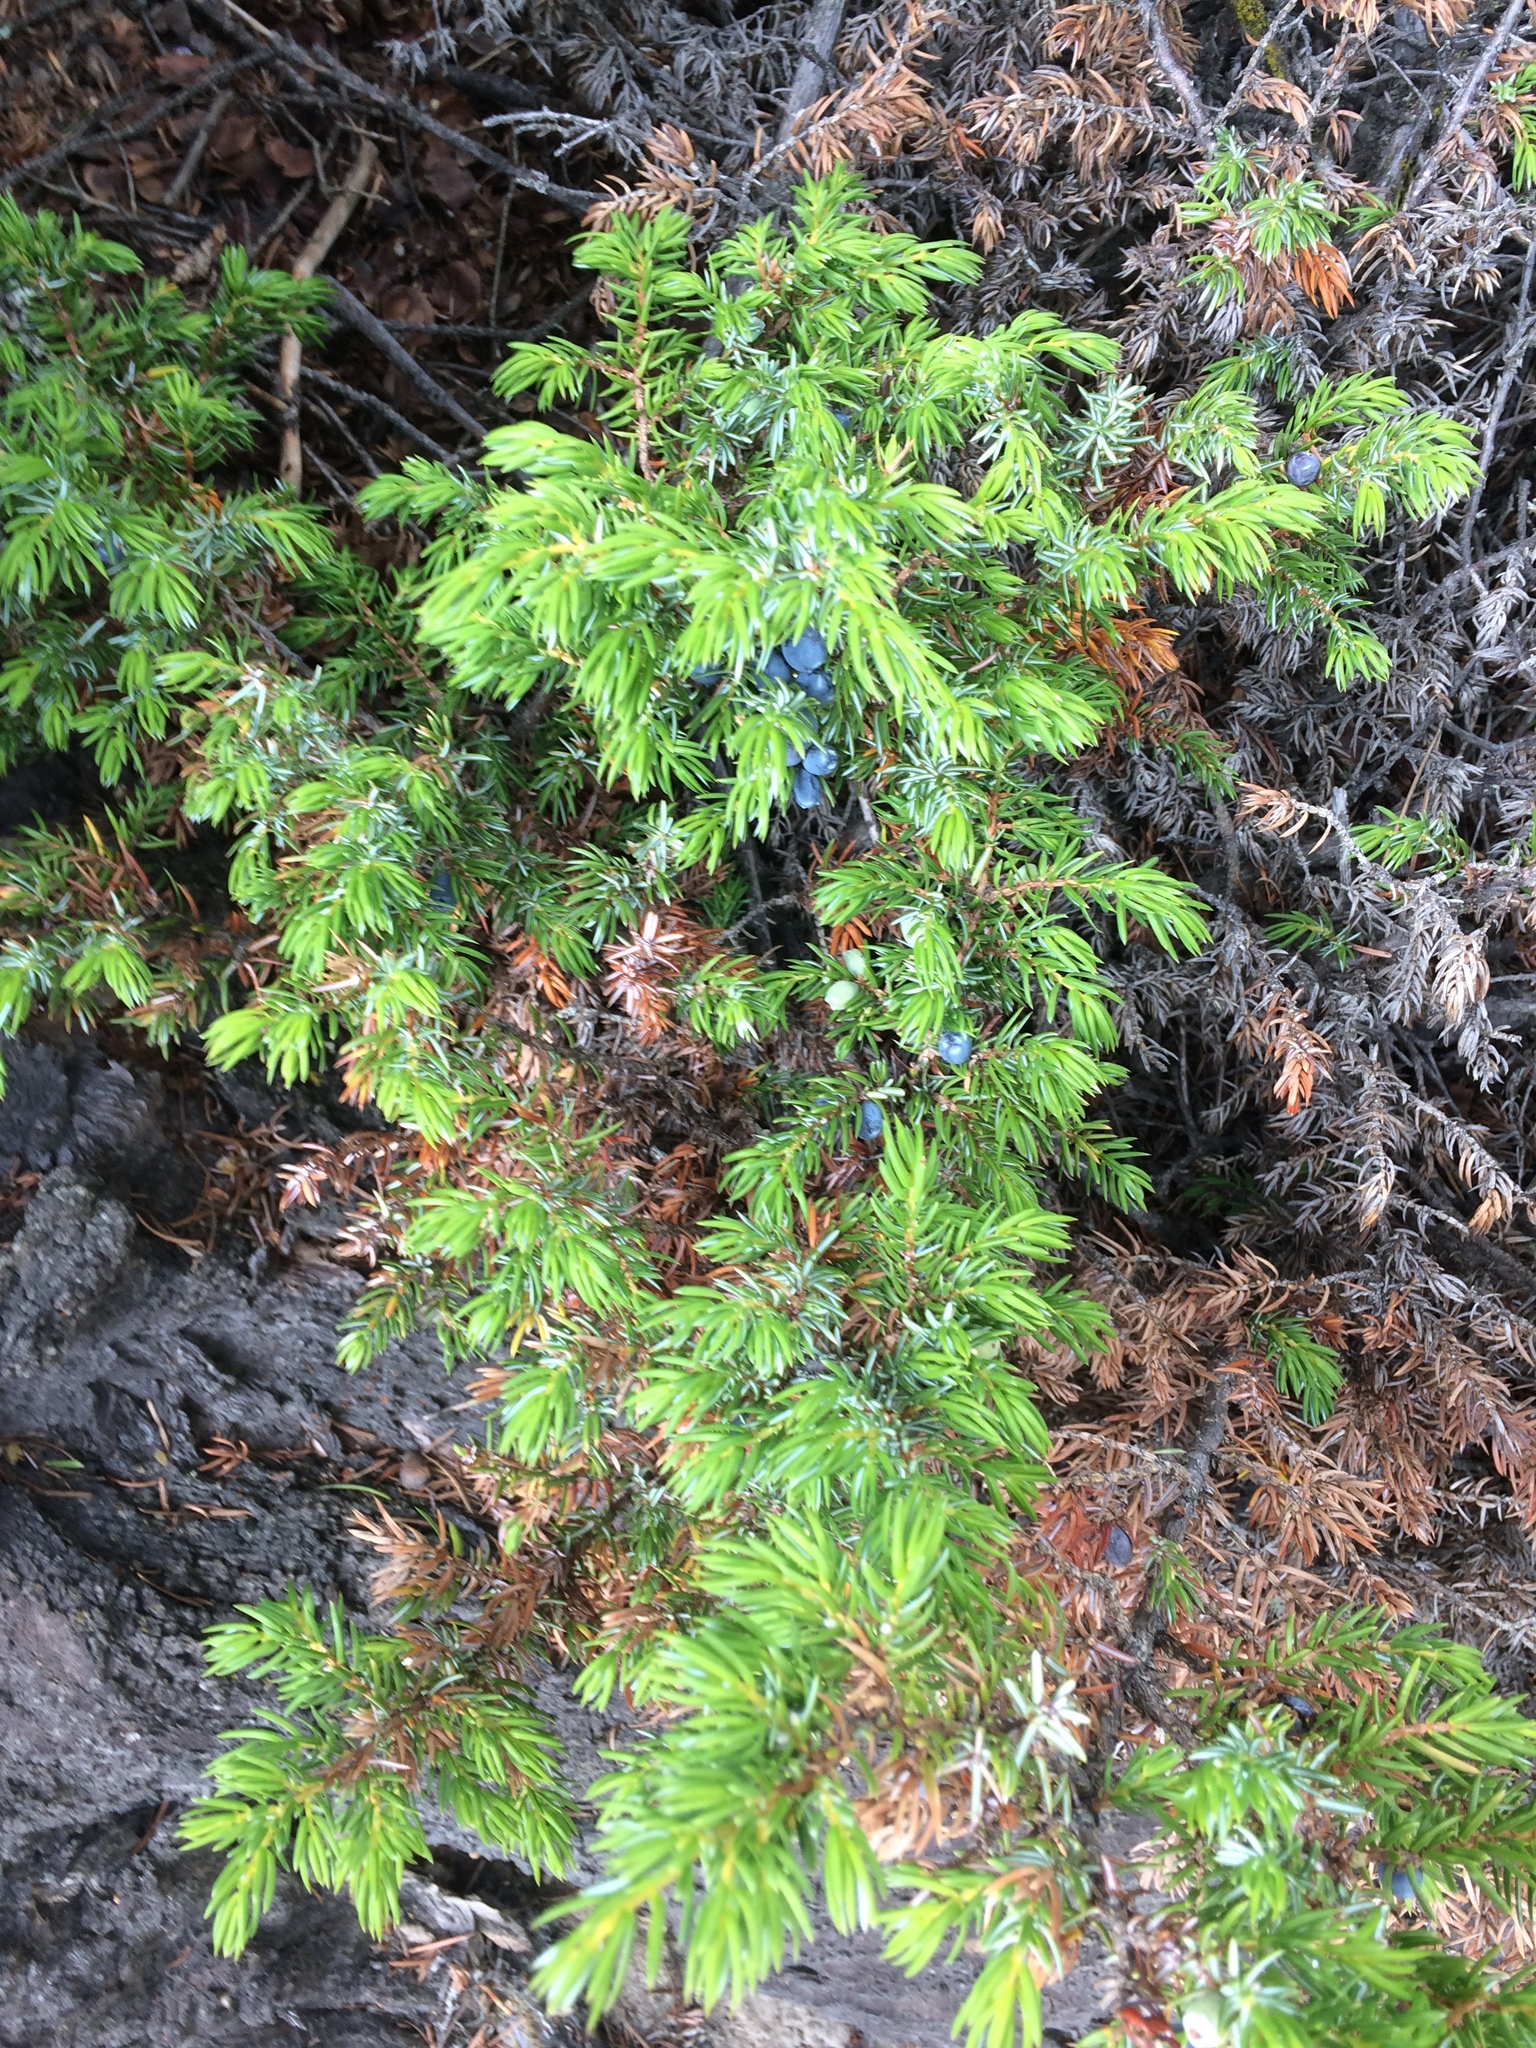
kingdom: Plantae
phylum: Tracheophyta
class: Pinopsida
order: Pinales
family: Cupressaceae
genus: Juniperus
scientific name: Juniperus communis
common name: Common juniper
